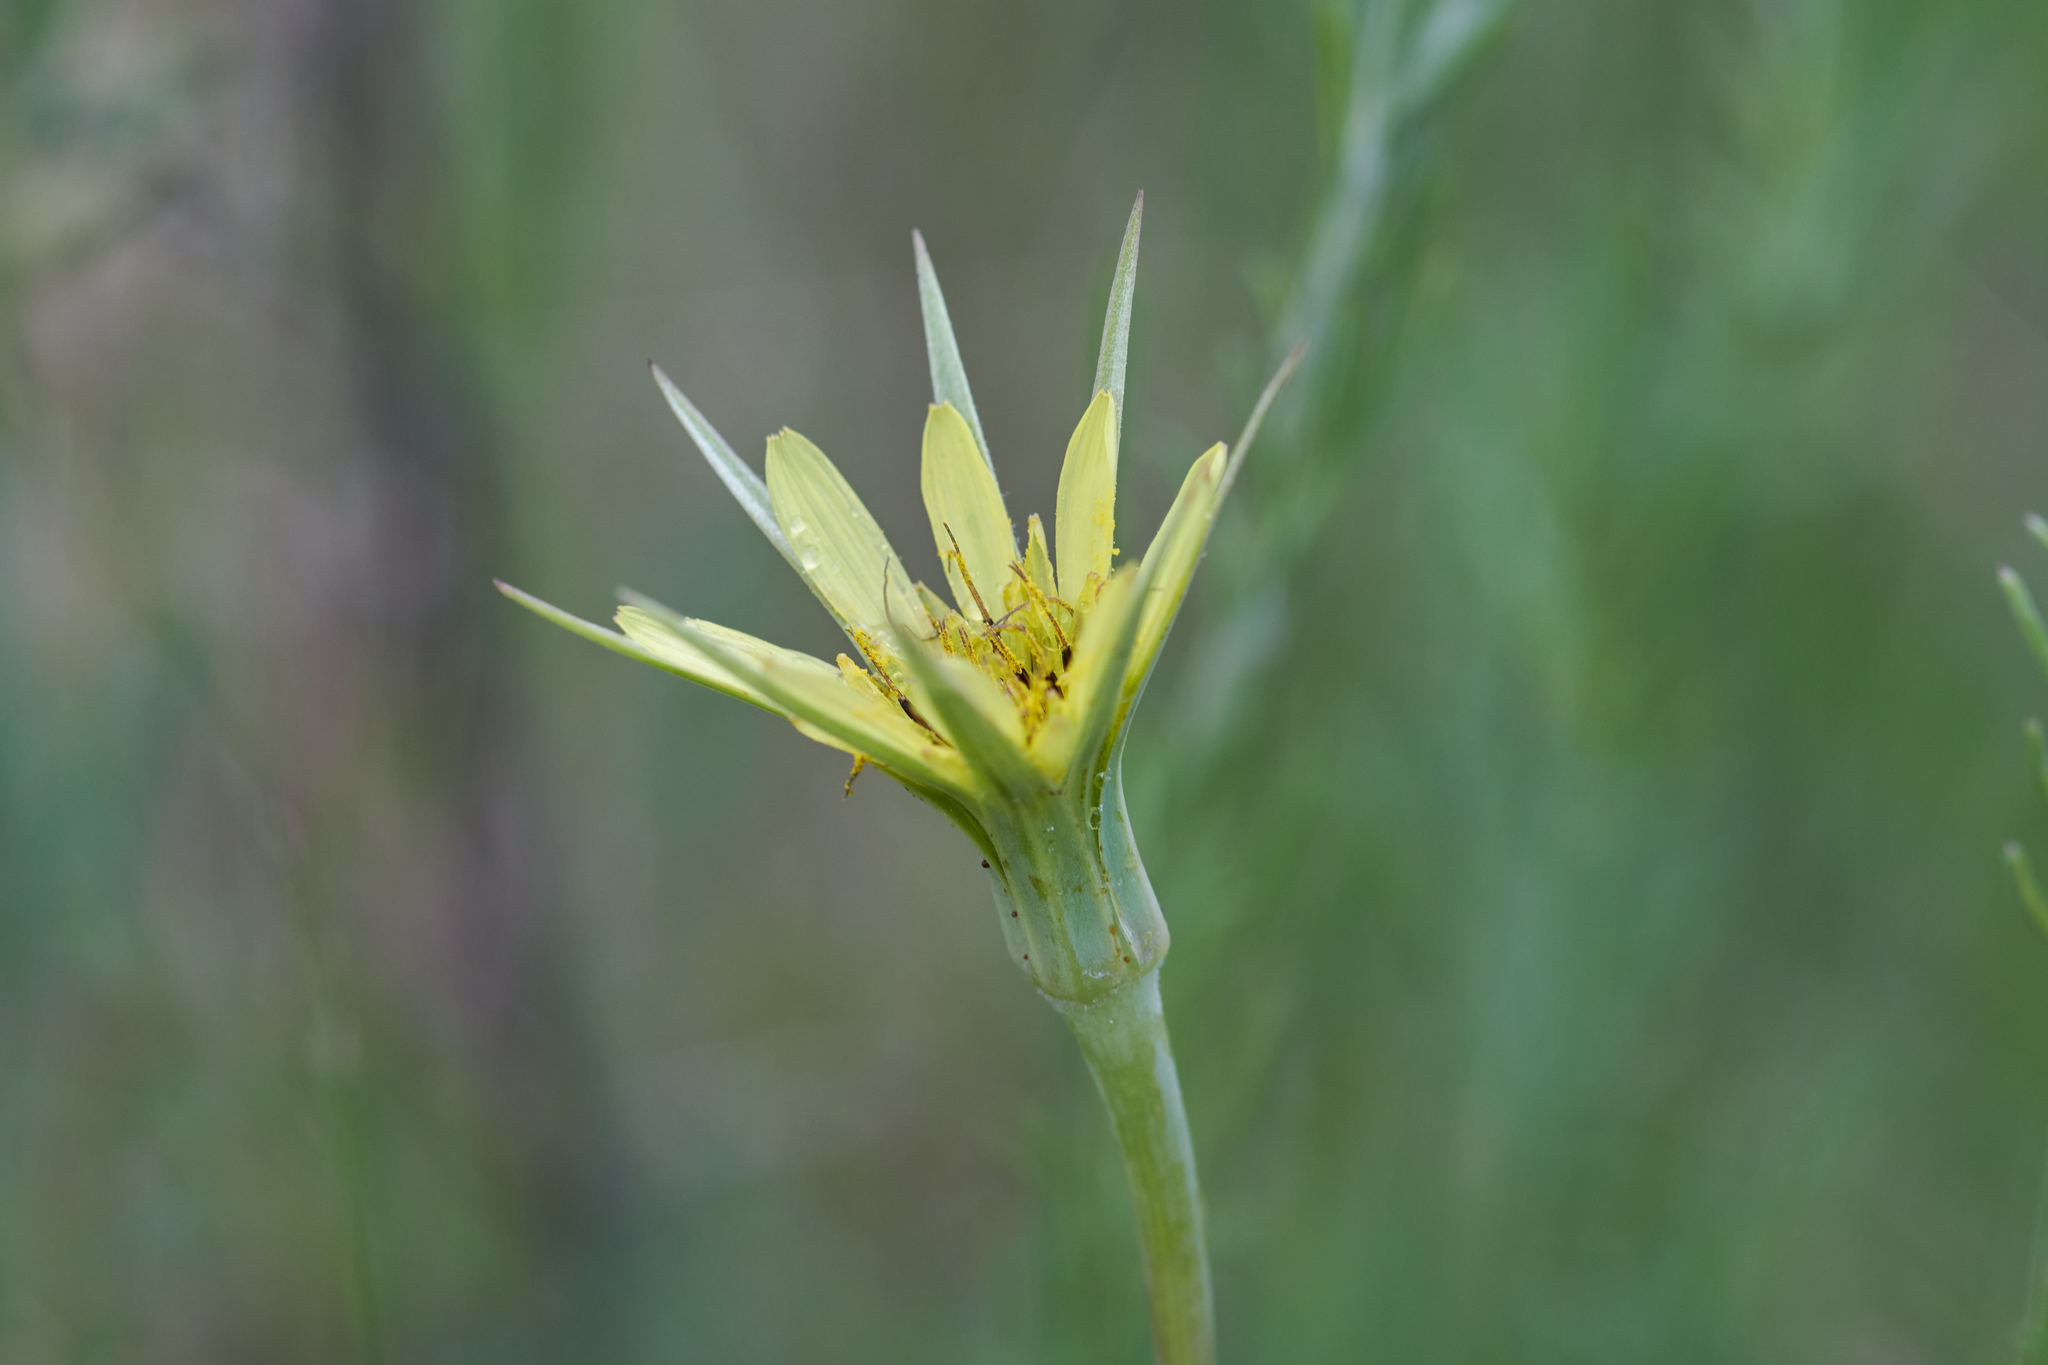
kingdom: Plantae
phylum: Tracheophyta
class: Magnoliopsida
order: Asterales
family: Asteraceae
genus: Tragopogon
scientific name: Tragopogon dubius
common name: Yellow salsify
